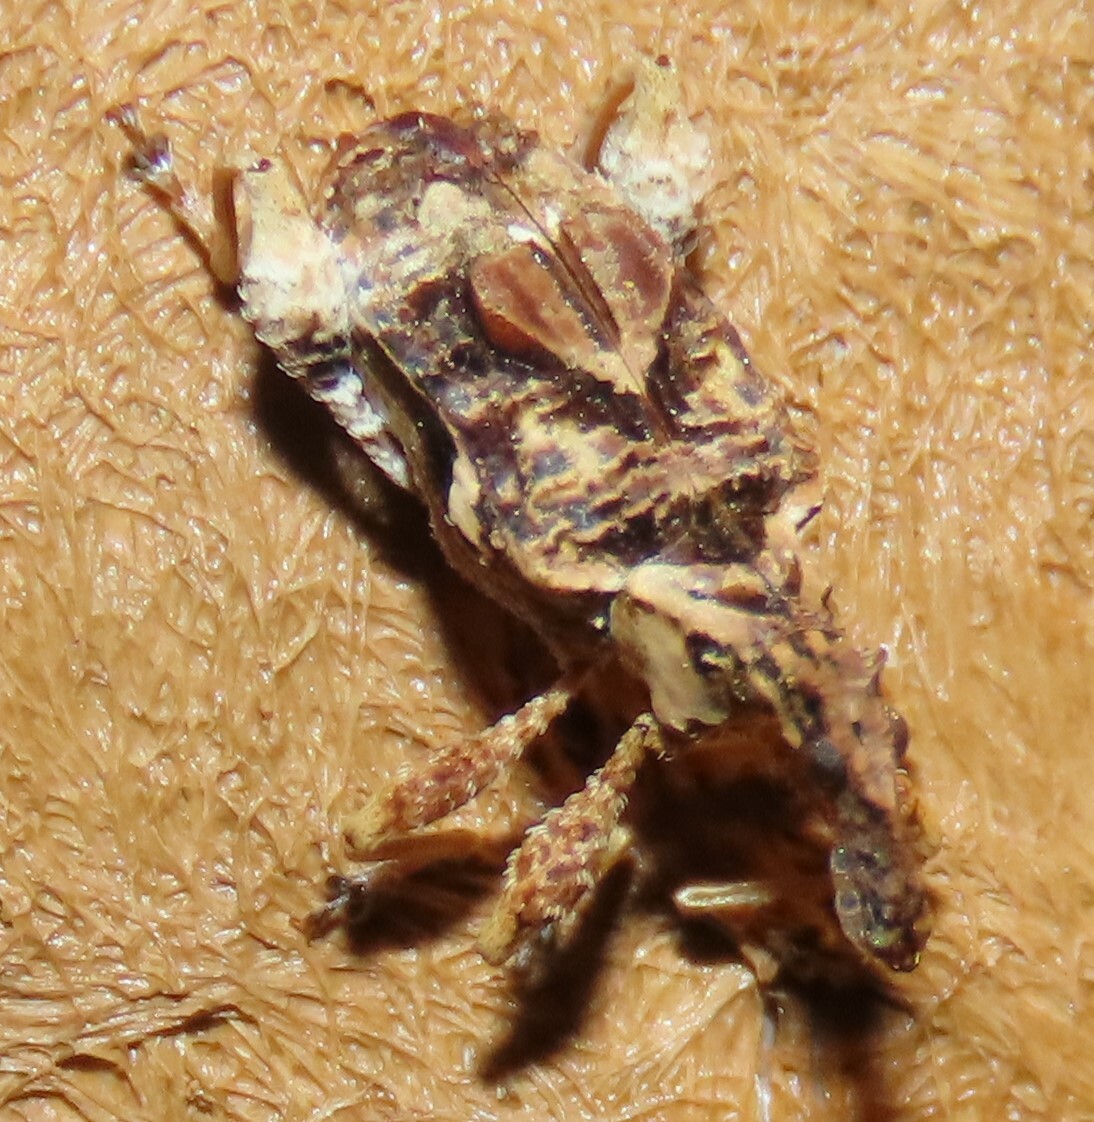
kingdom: Animalia
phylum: Arthropoda
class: Insecta
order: Coleoptera
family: Curculionidae
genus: Stephanorhynchus
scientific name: Stephanorhynchus curvipes
